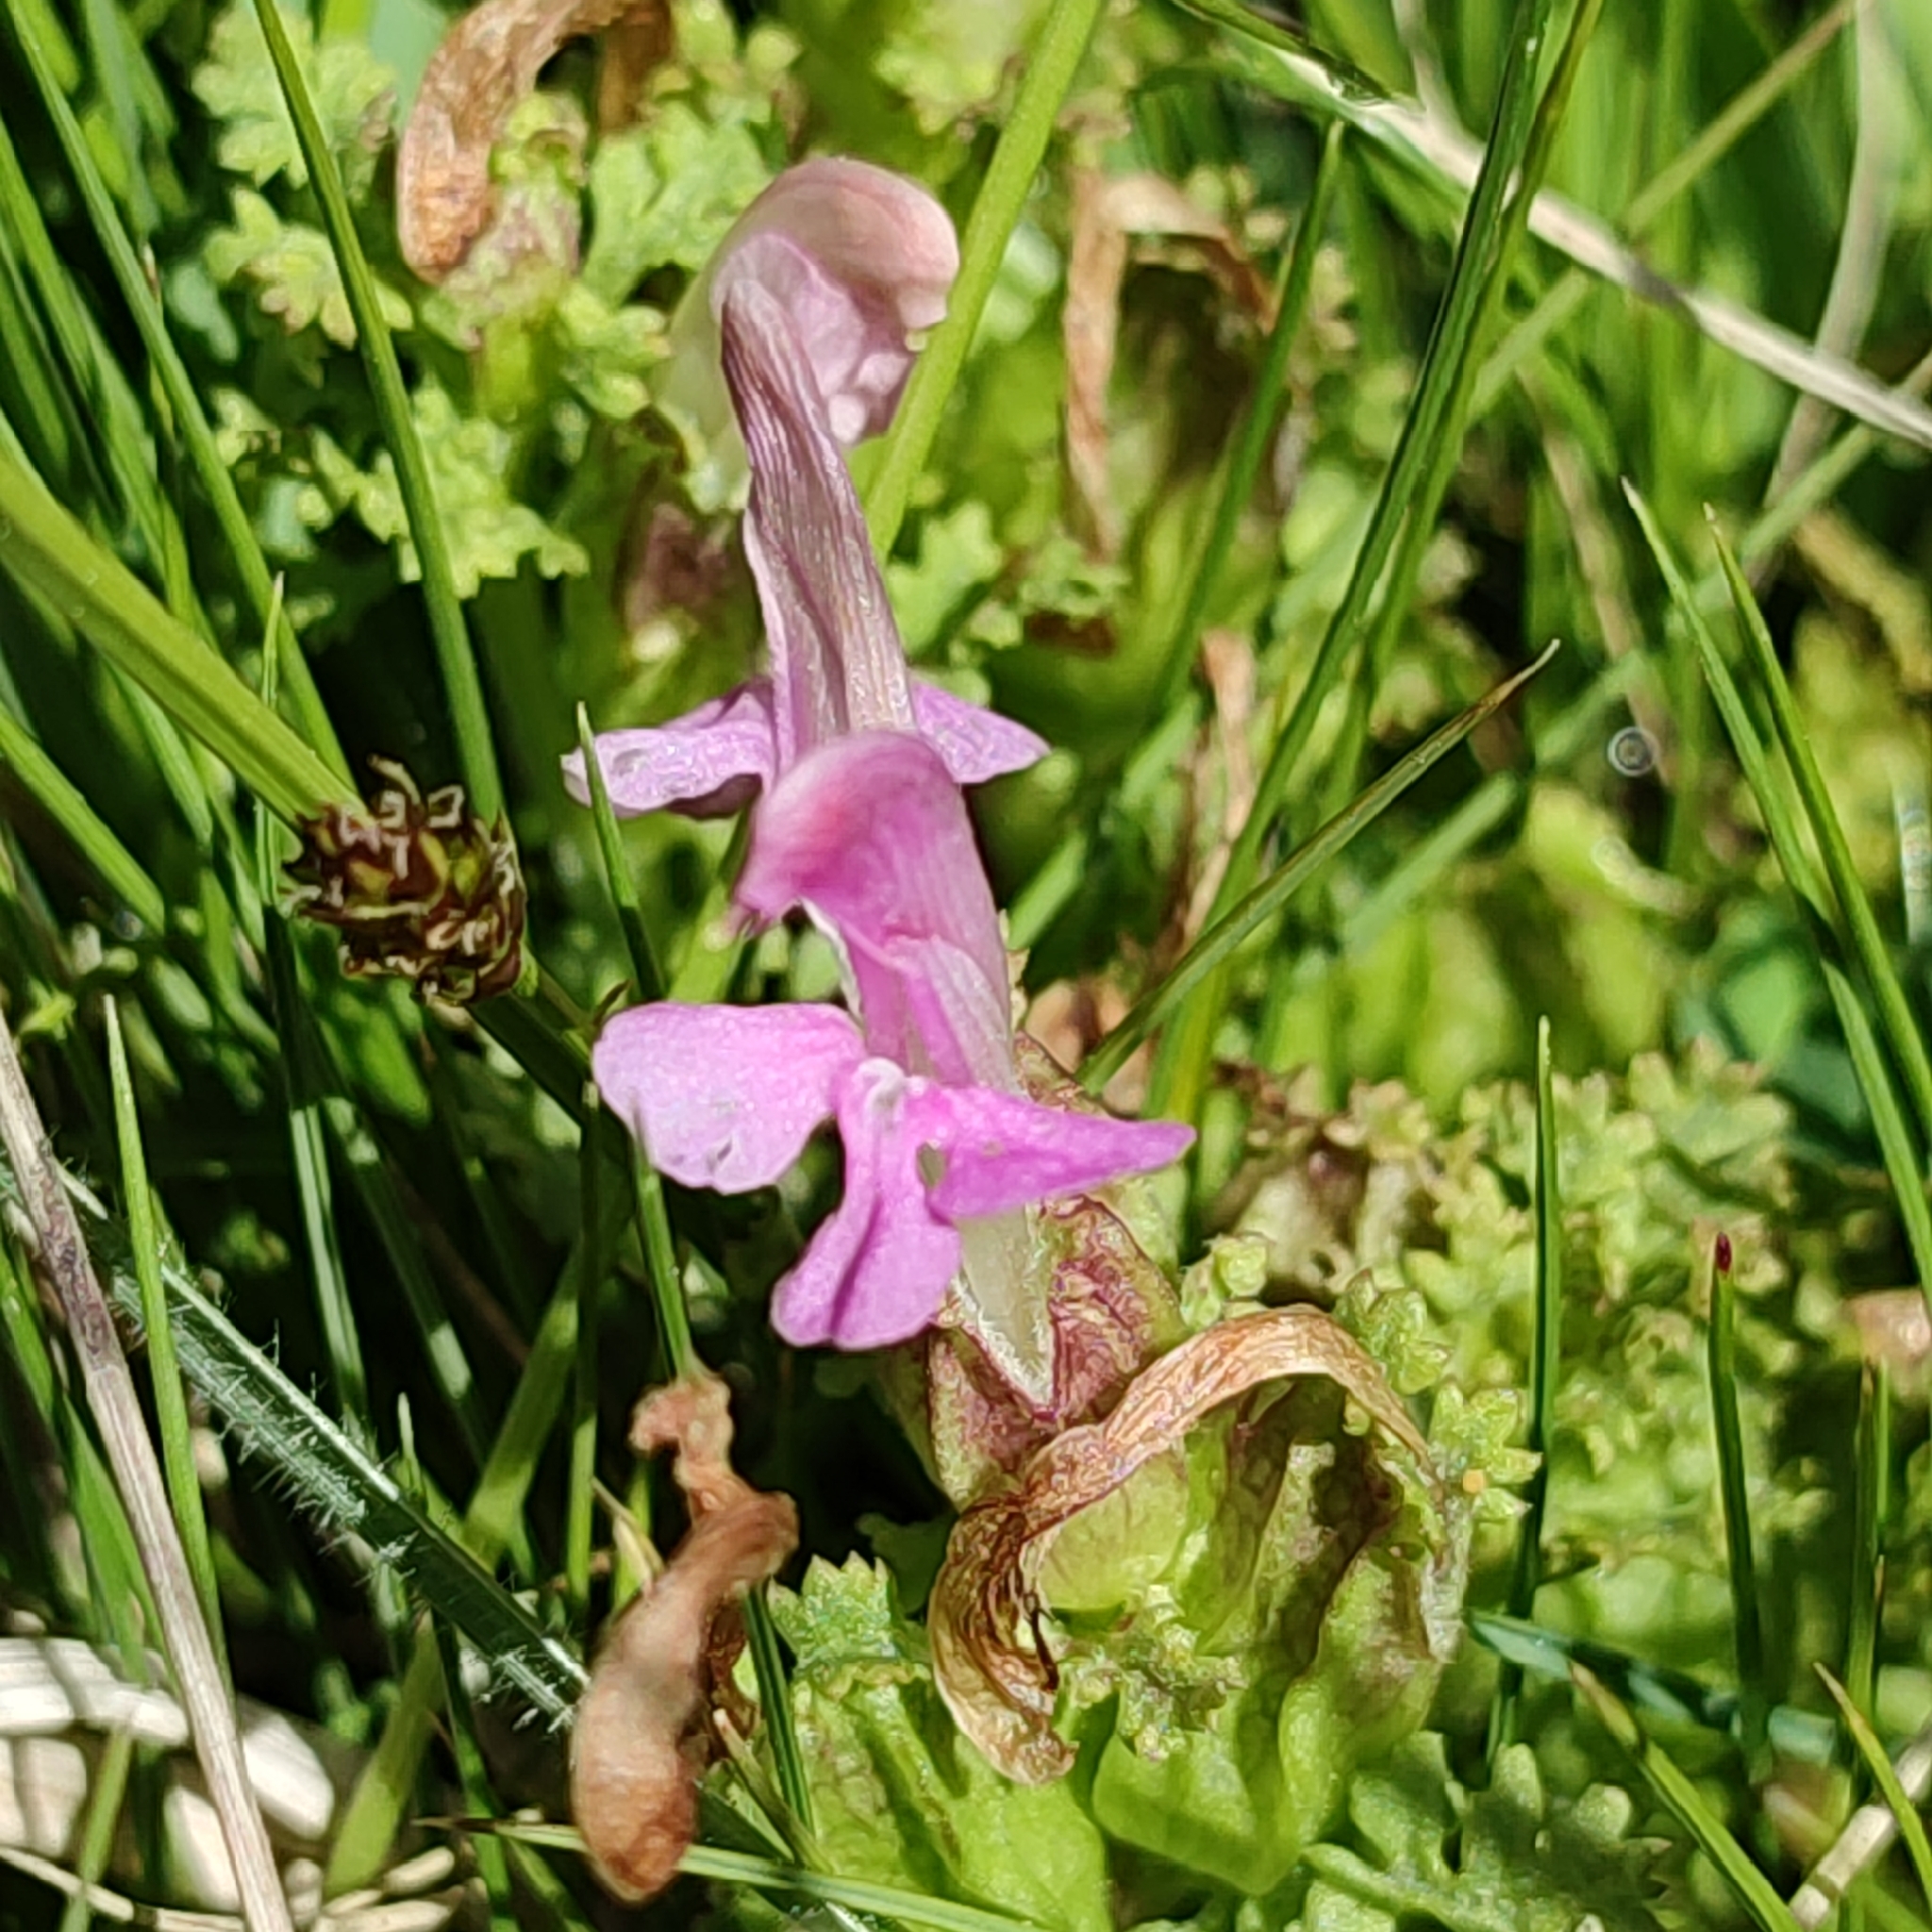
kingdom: Plantae
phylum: Tracheophyta
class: Magnoliopsida
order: Lamiales
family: Orobanchaceae
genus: Pedicularis
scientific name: Pedicularis sylvatica
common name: Lousewort
